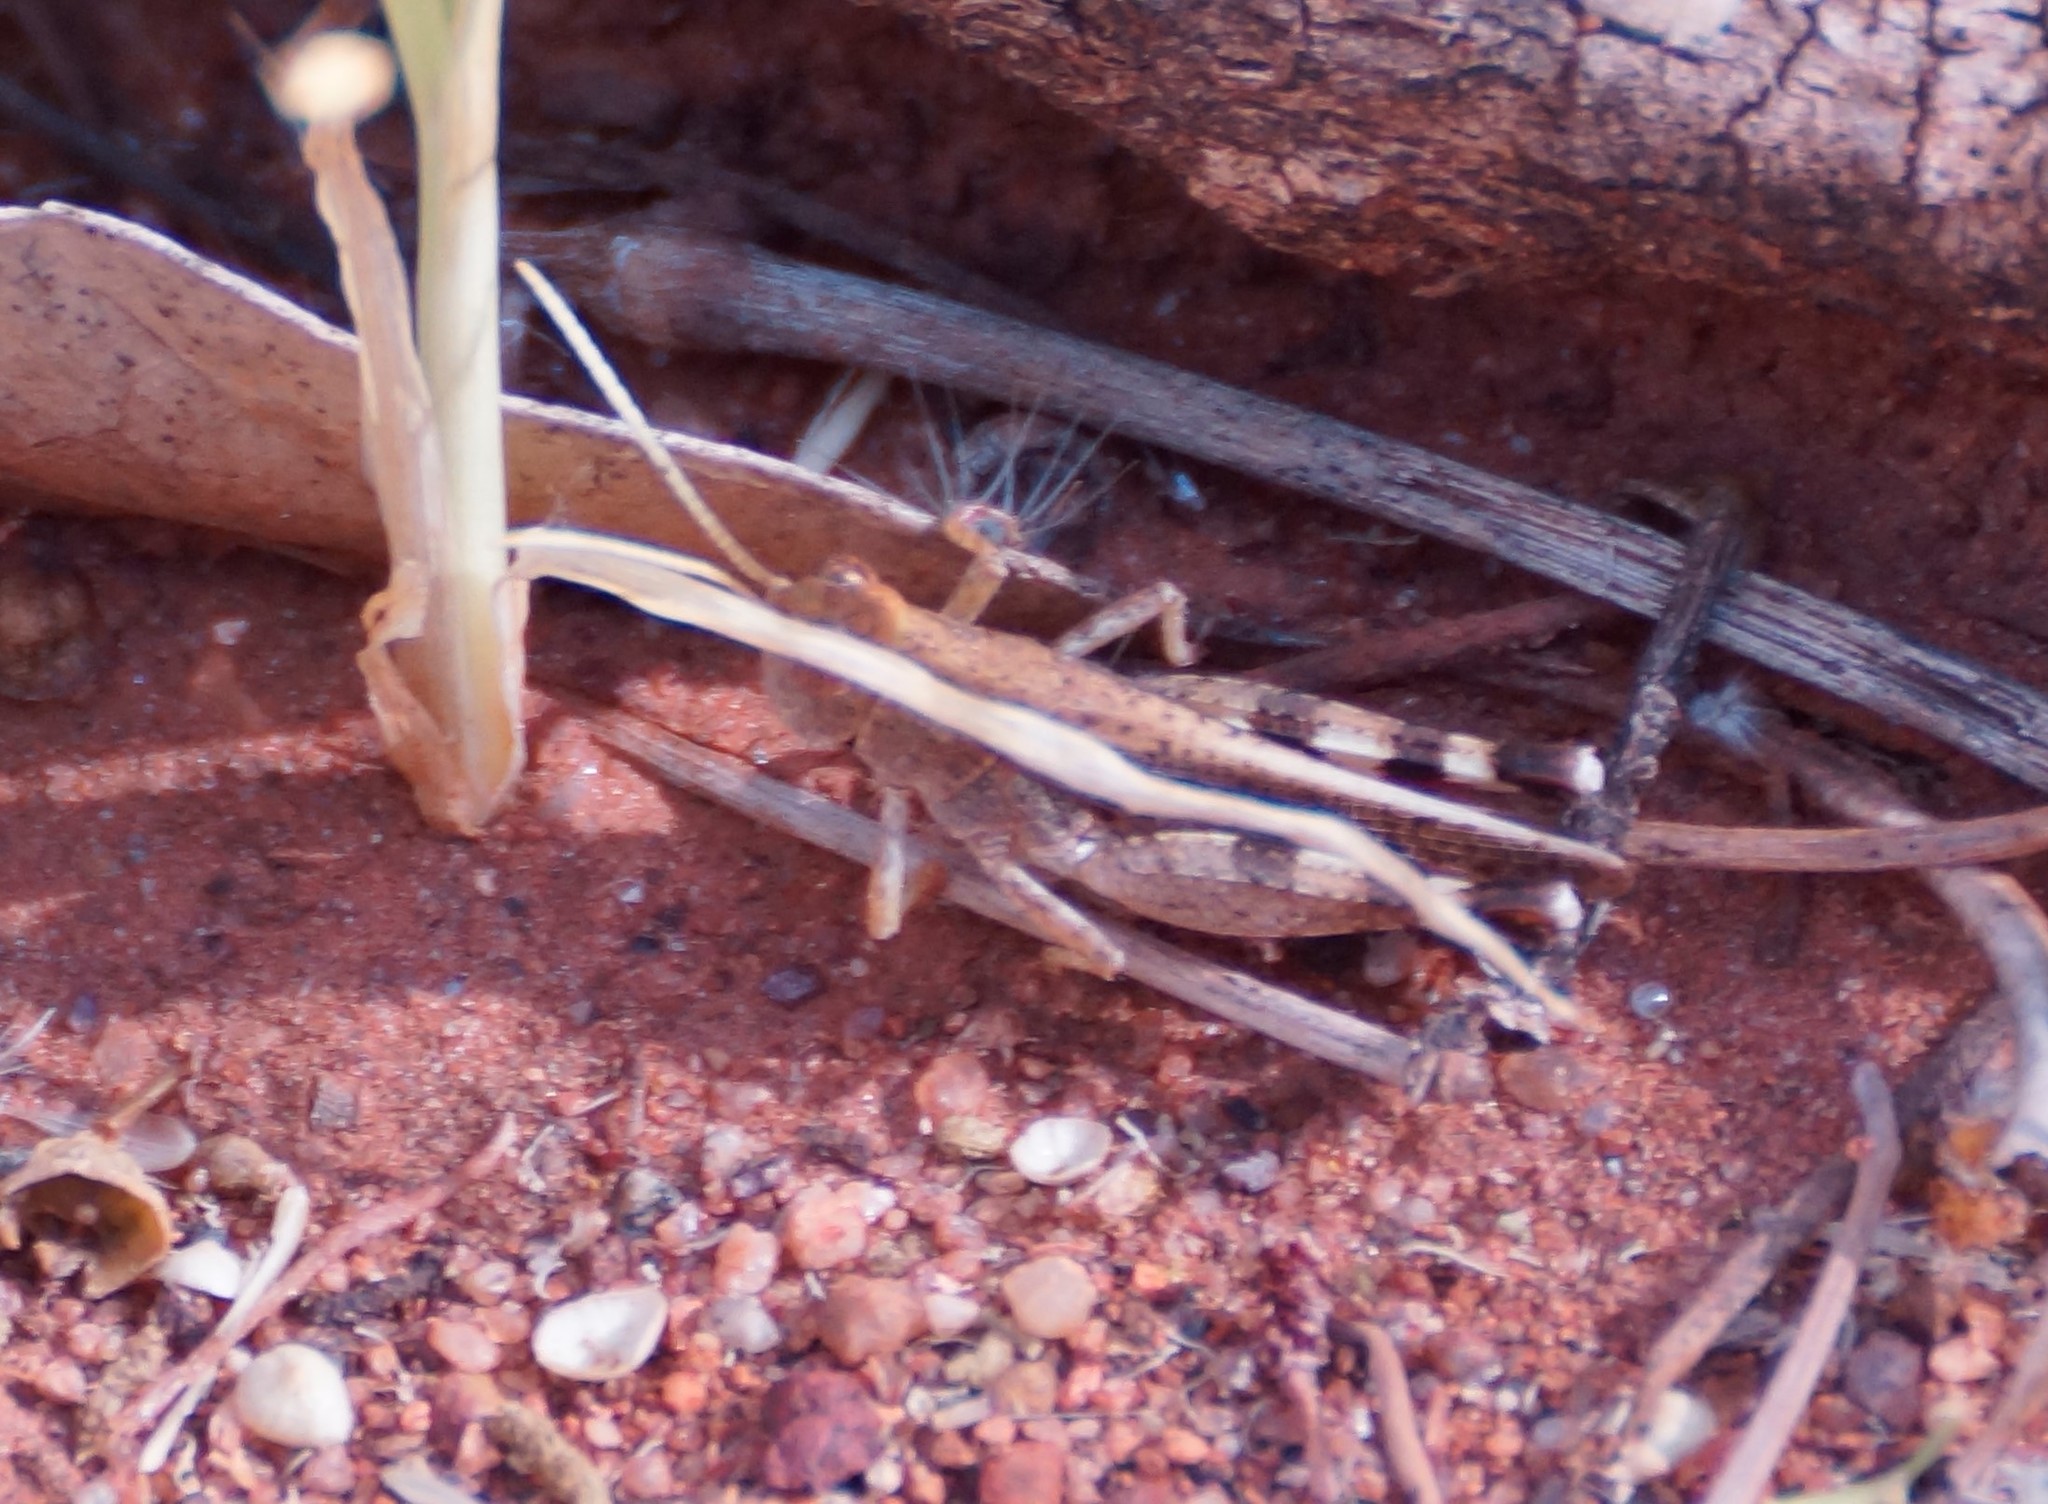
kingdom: Animalia
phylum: Arthropoda
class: Insecta
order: Orthoptera
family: Acrididae
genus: Desertaria
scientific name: Desertaria lepida
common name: Ungee-gungee
